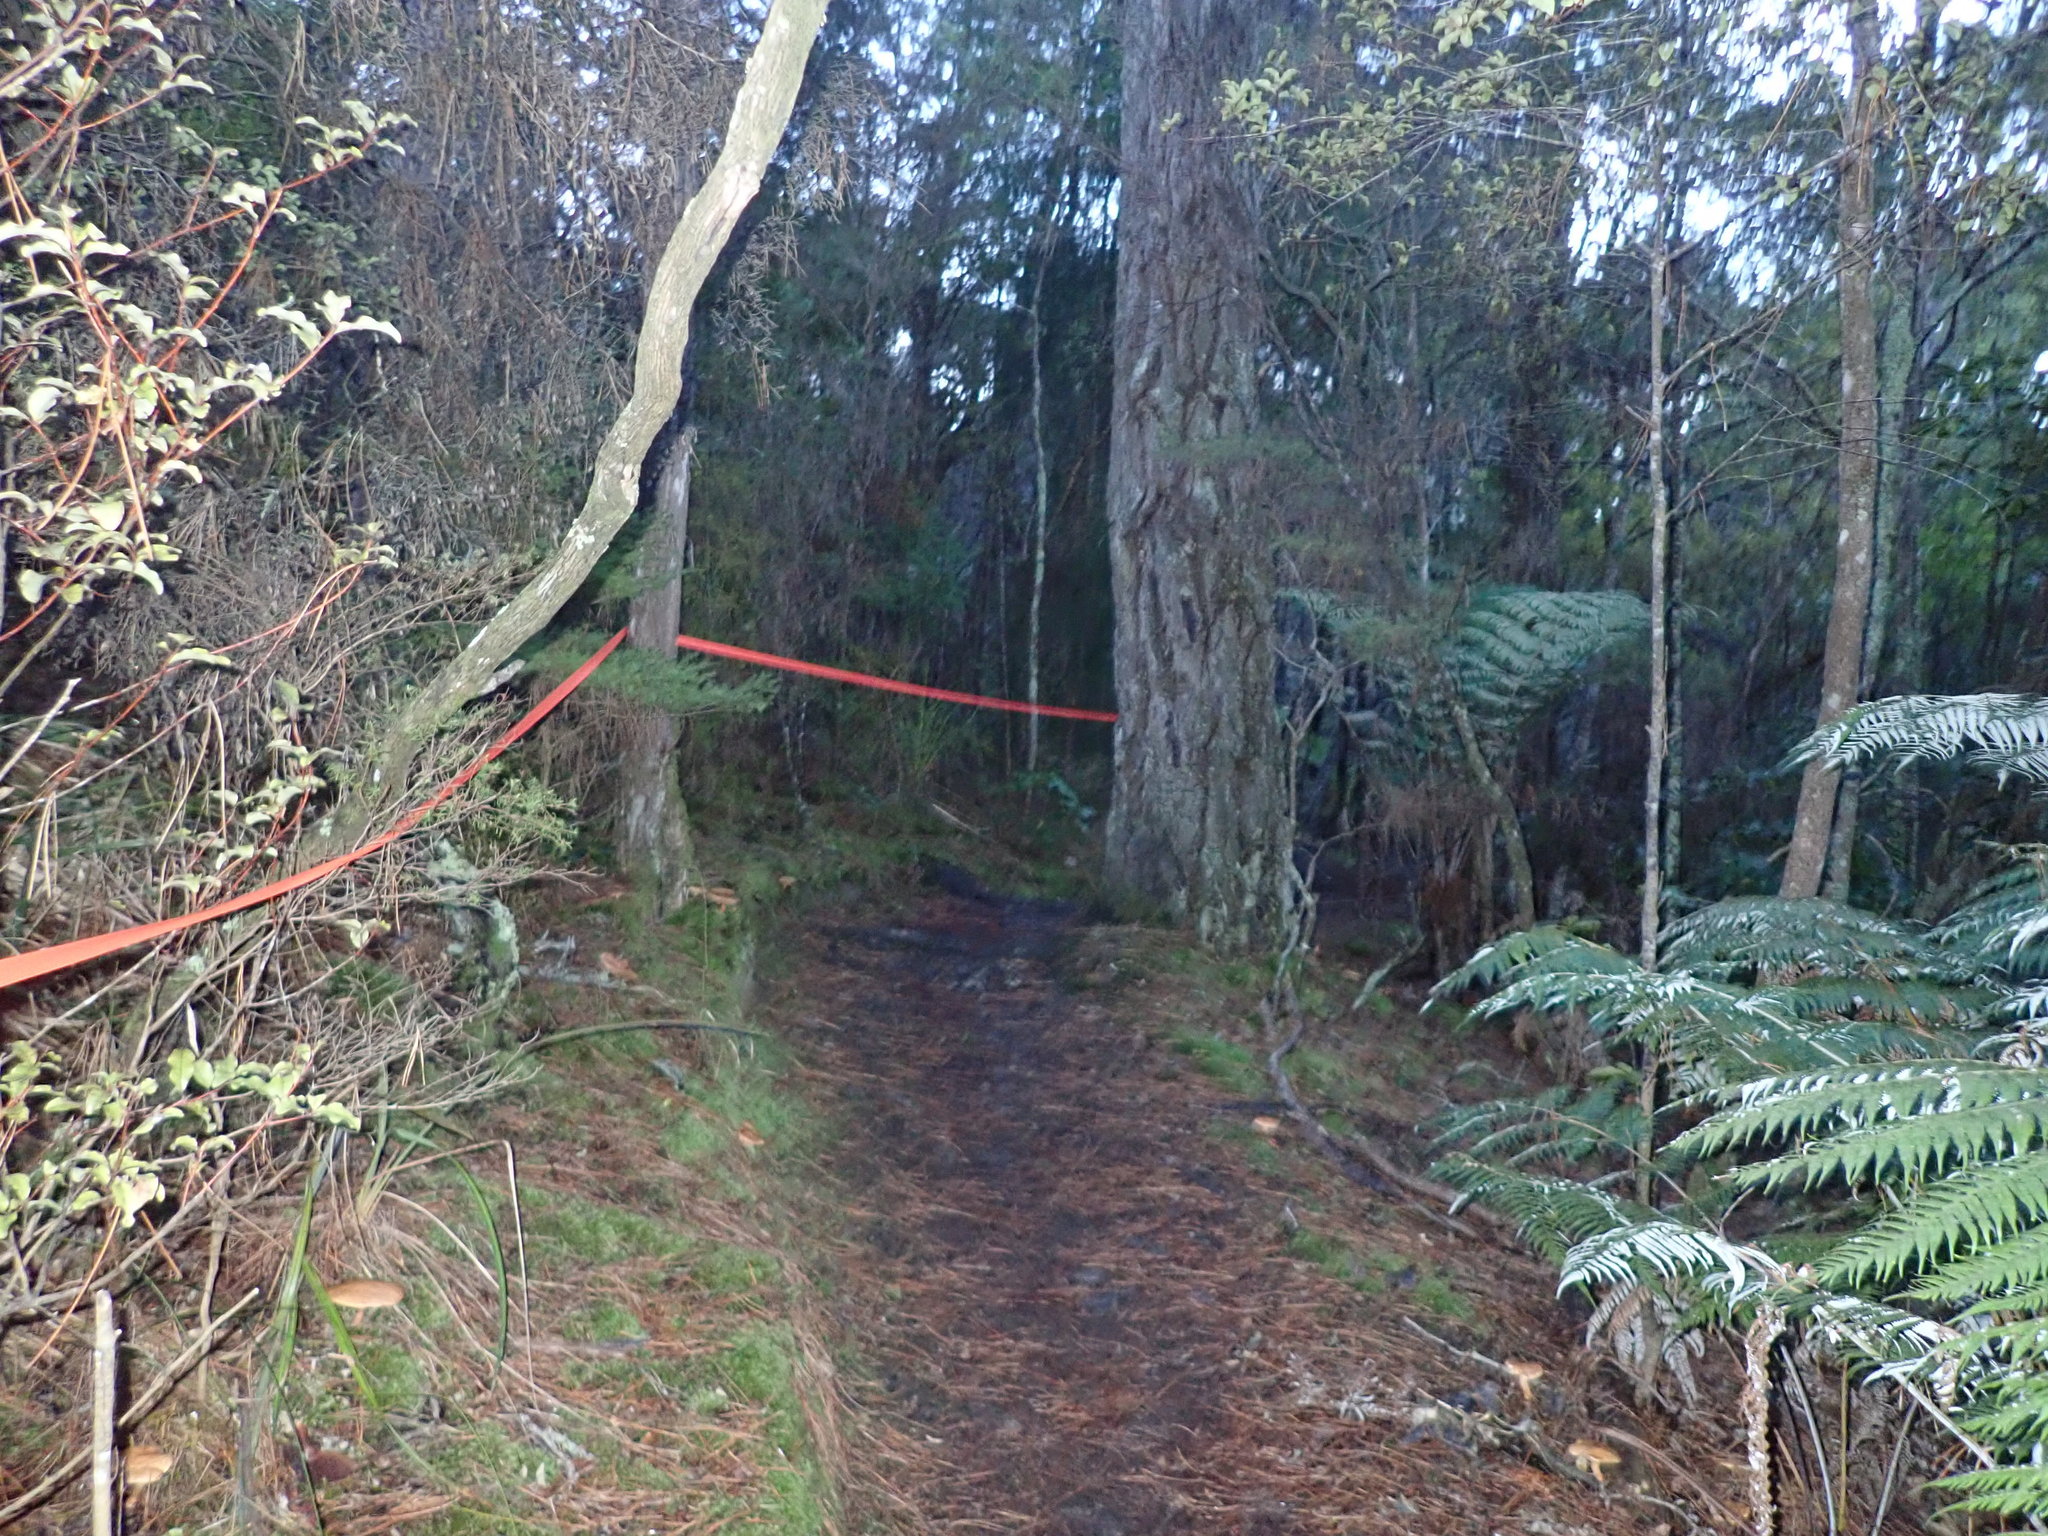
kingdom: Plantae
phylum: Tracheophyta
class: Magnoliopsida
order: Ericales
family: Primulaceae
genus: Myrsine
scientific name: Myrsine australis
